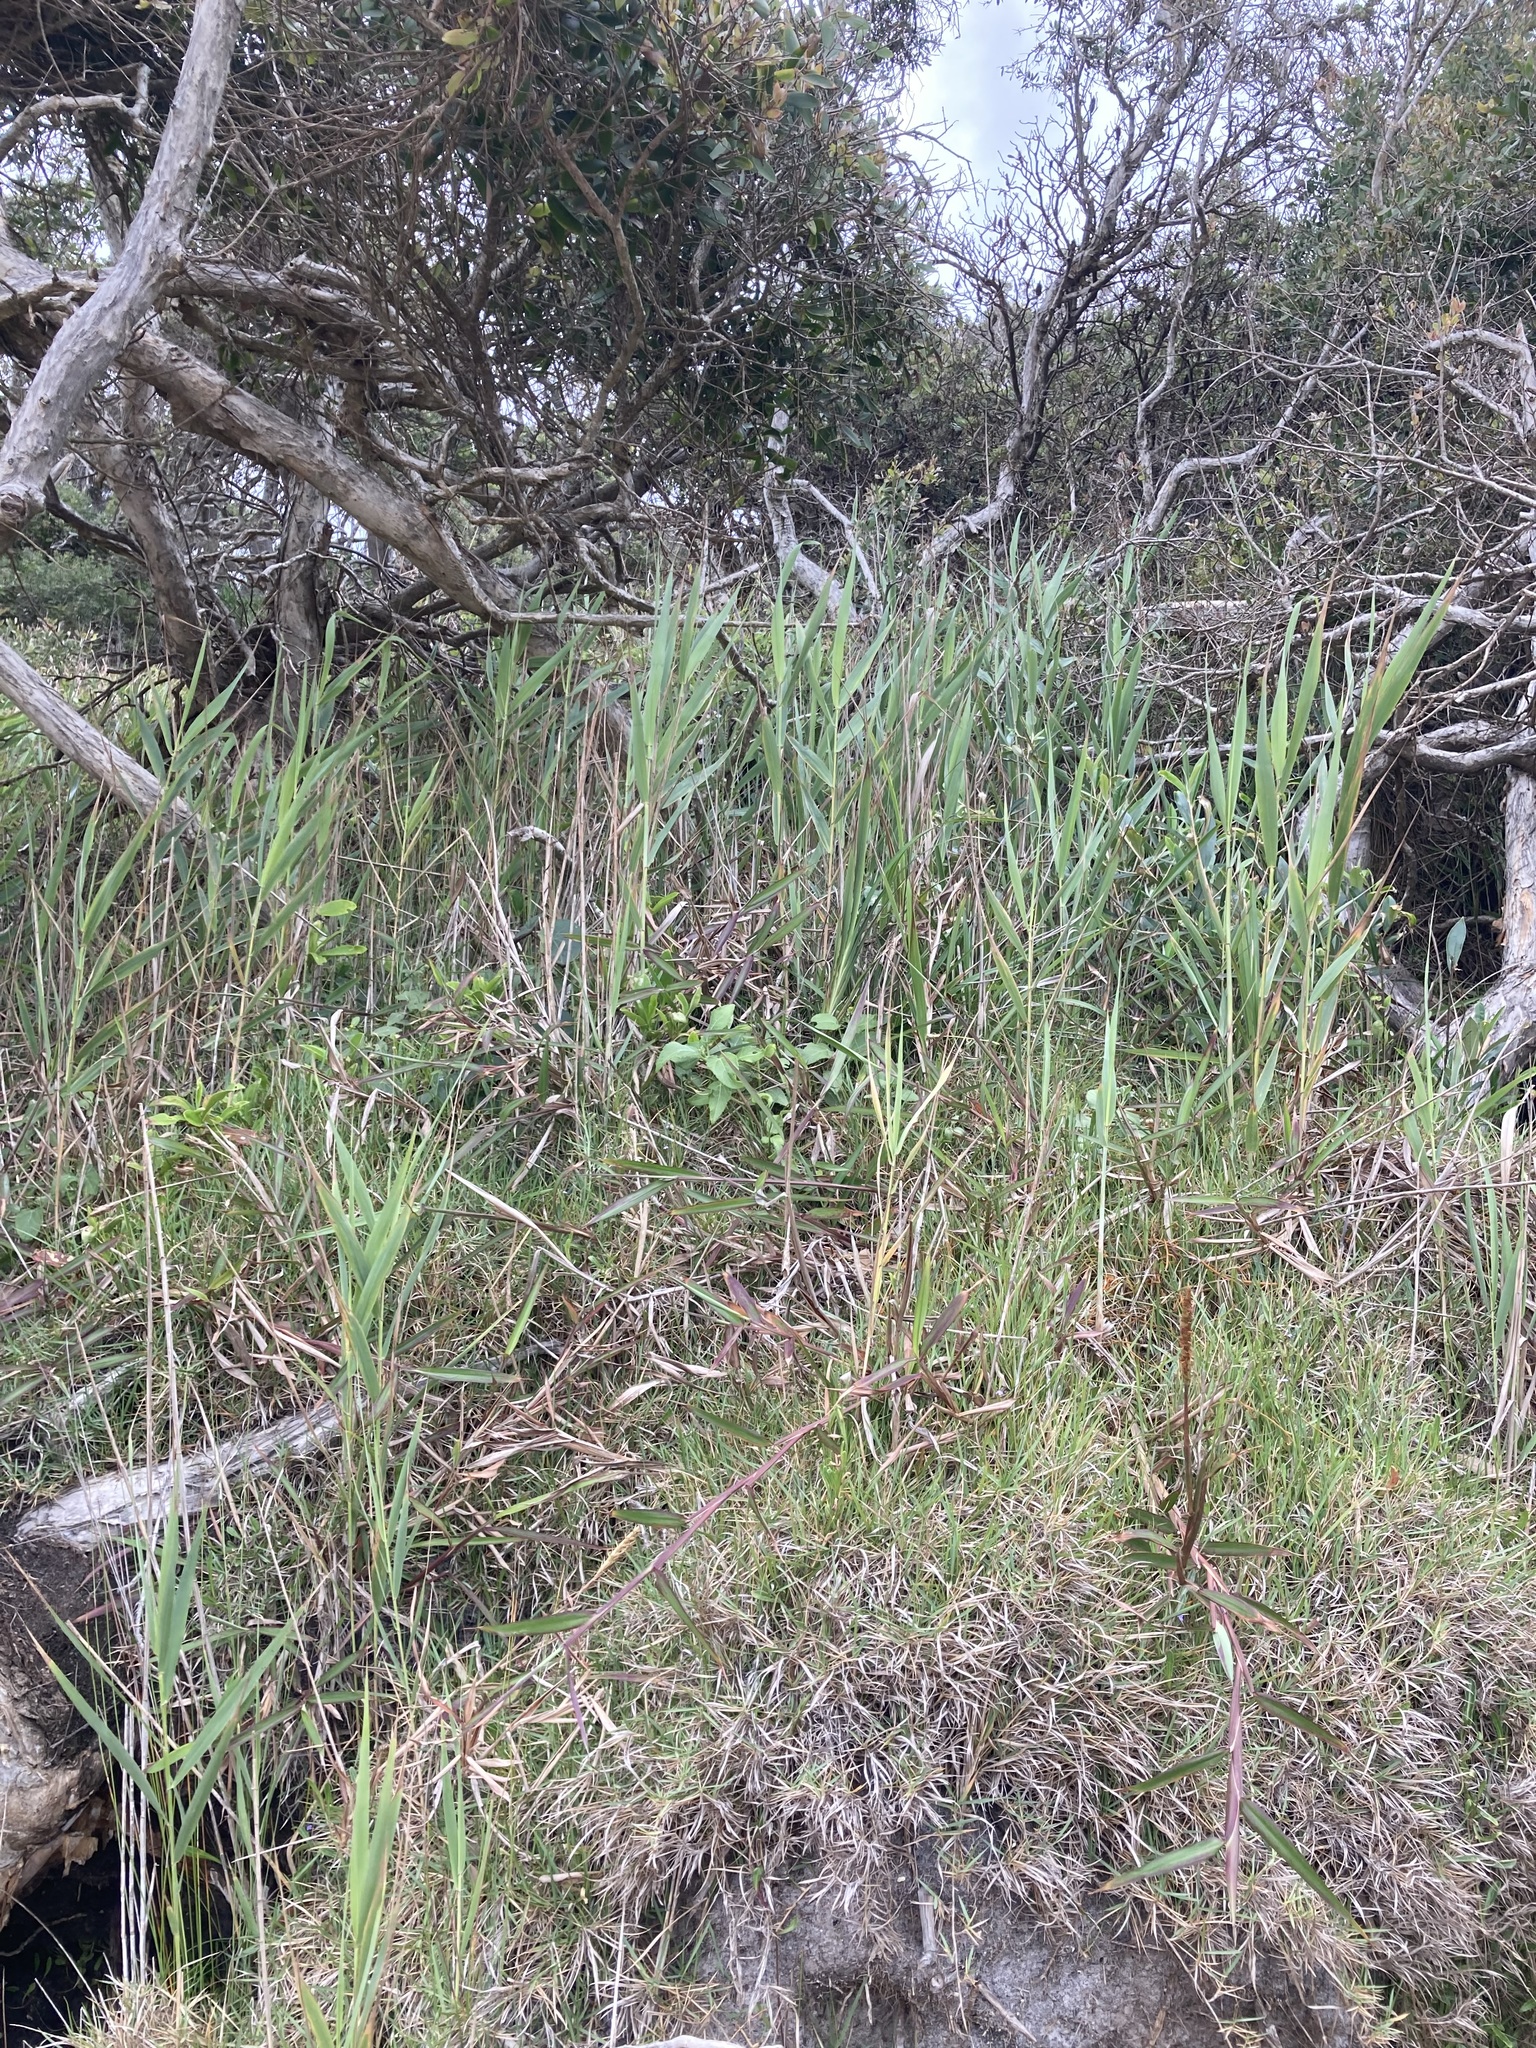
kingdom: Plantae
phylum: Tracheophyta
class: Liliopsida
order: Poales
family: Poaceae
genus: Phragmites
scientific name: Phragmites australis
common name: Common reed
